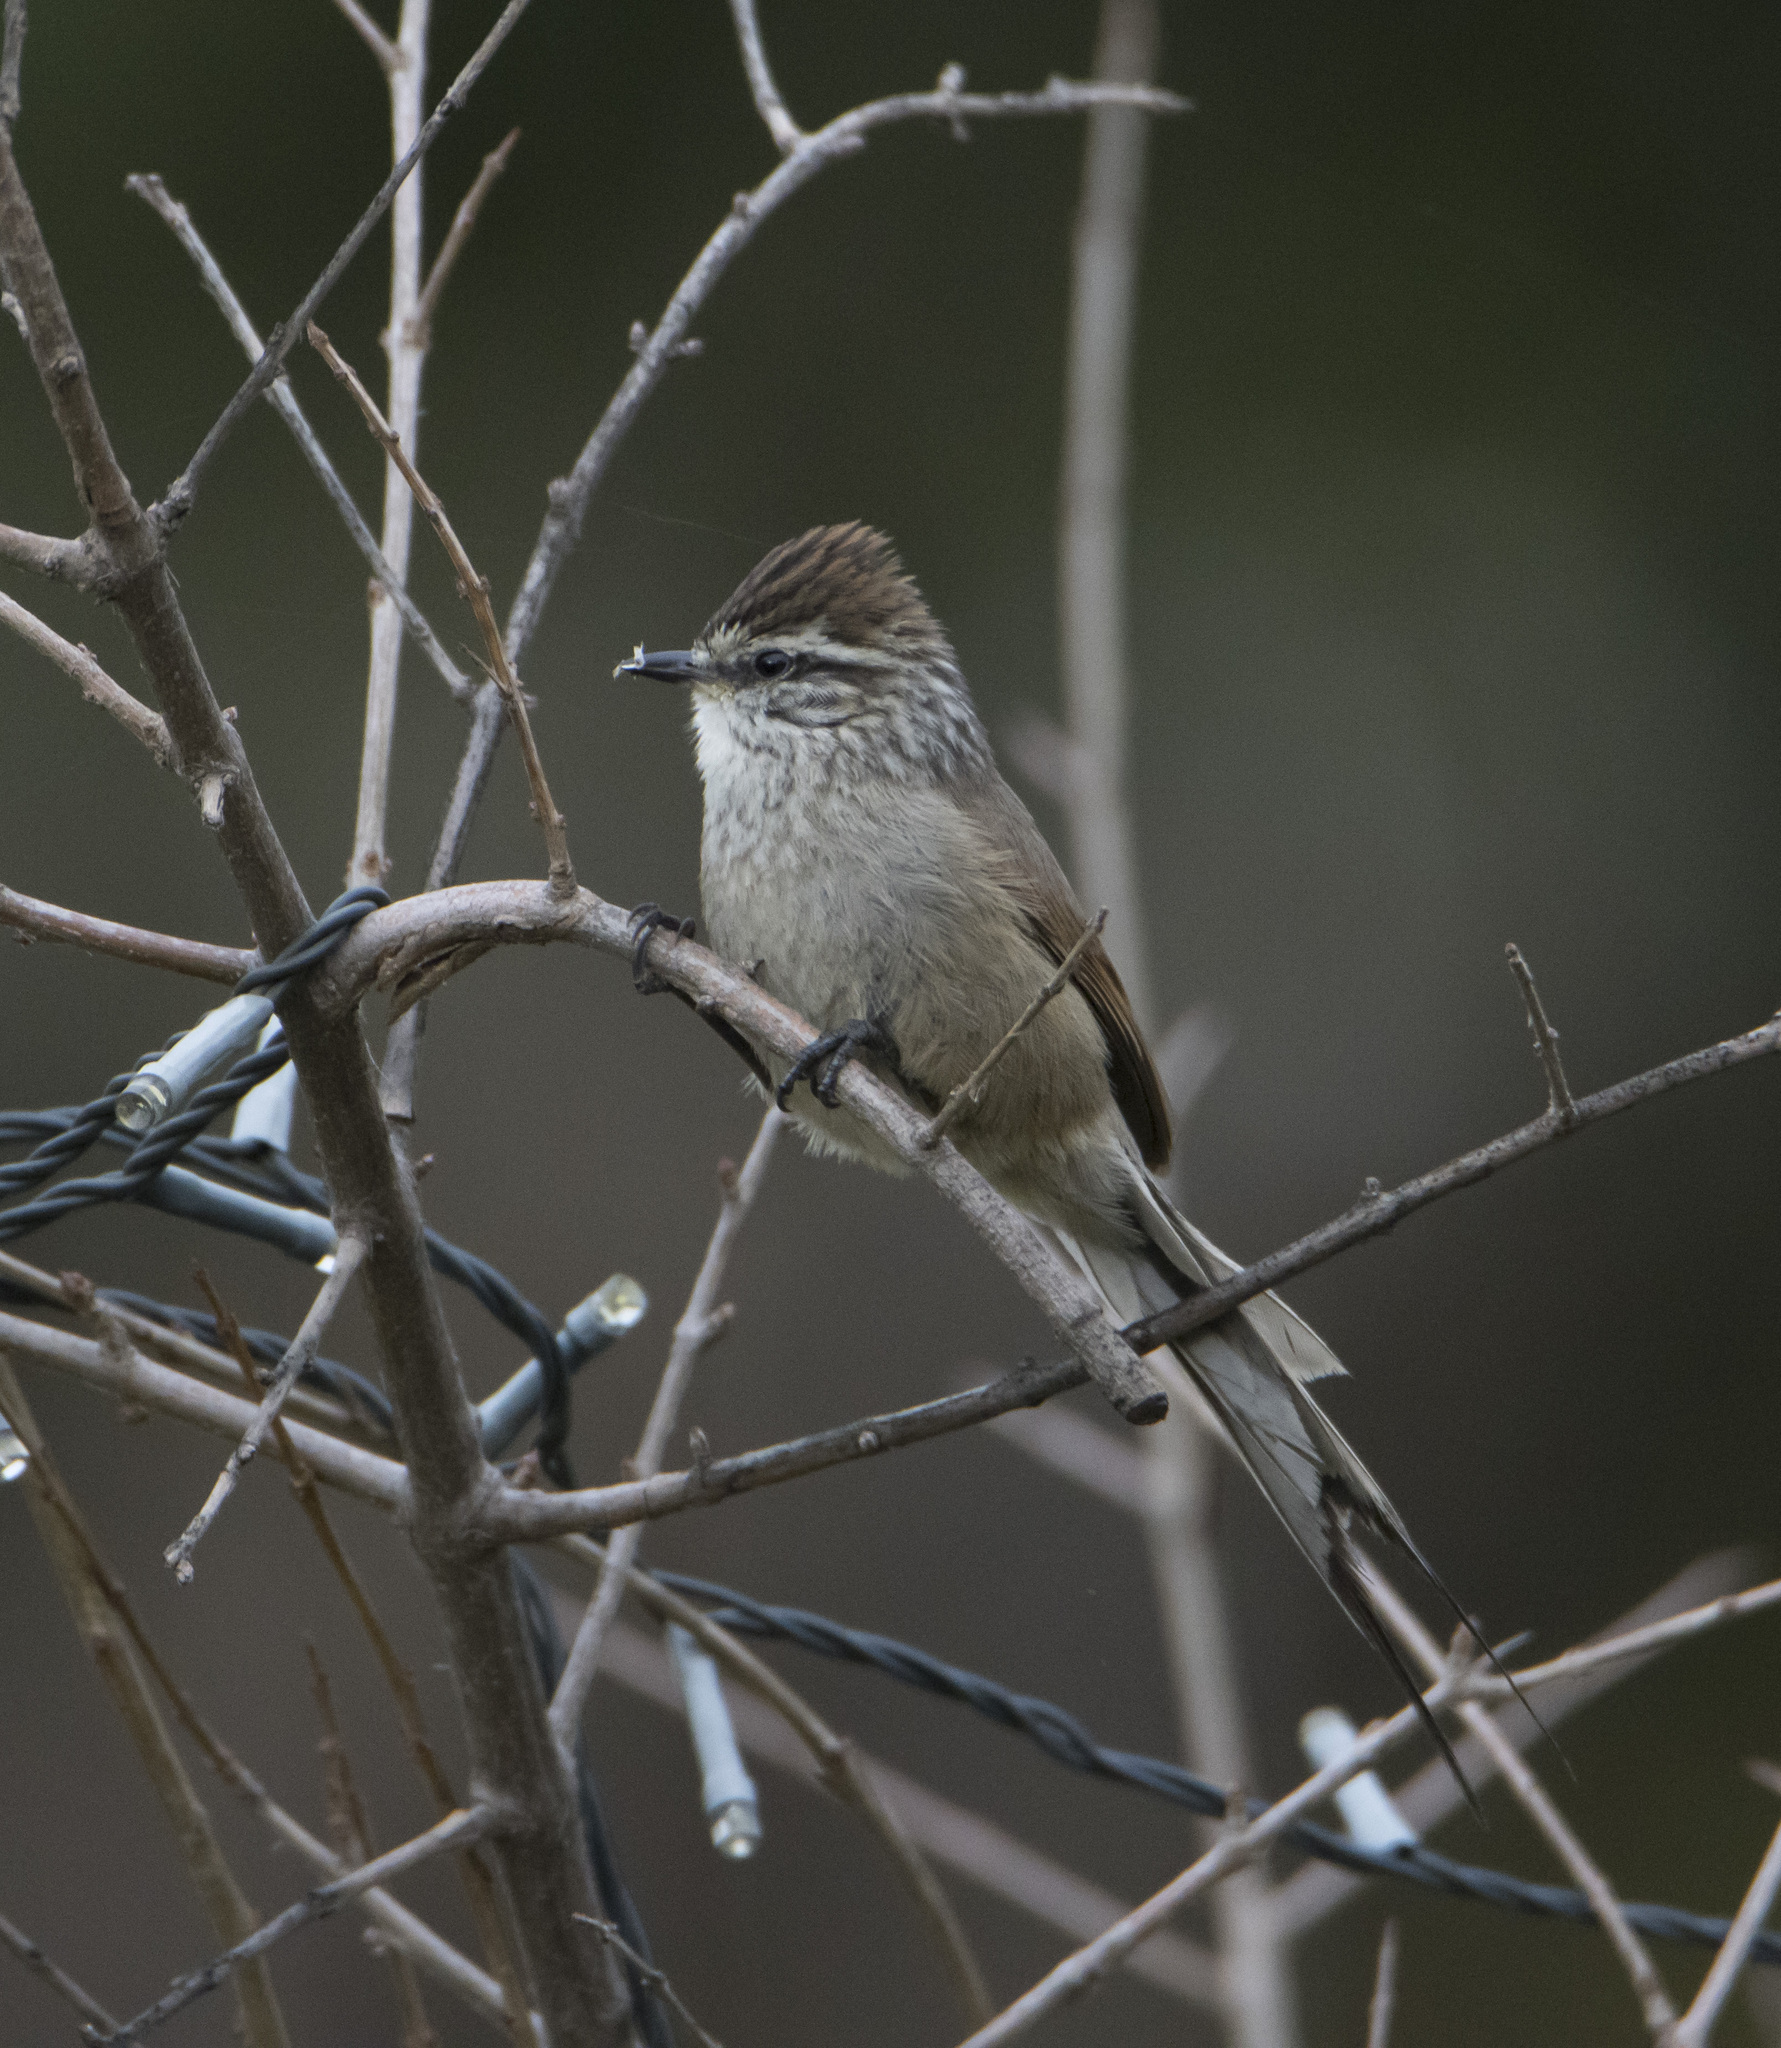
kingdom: Animalia
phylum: Chordata
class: Aves
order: Passeriformes
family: Furnariidae
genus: Leptasthenura
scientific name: Leptasthenura aegithaloides
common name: Plain-mantled tit-spinetail
